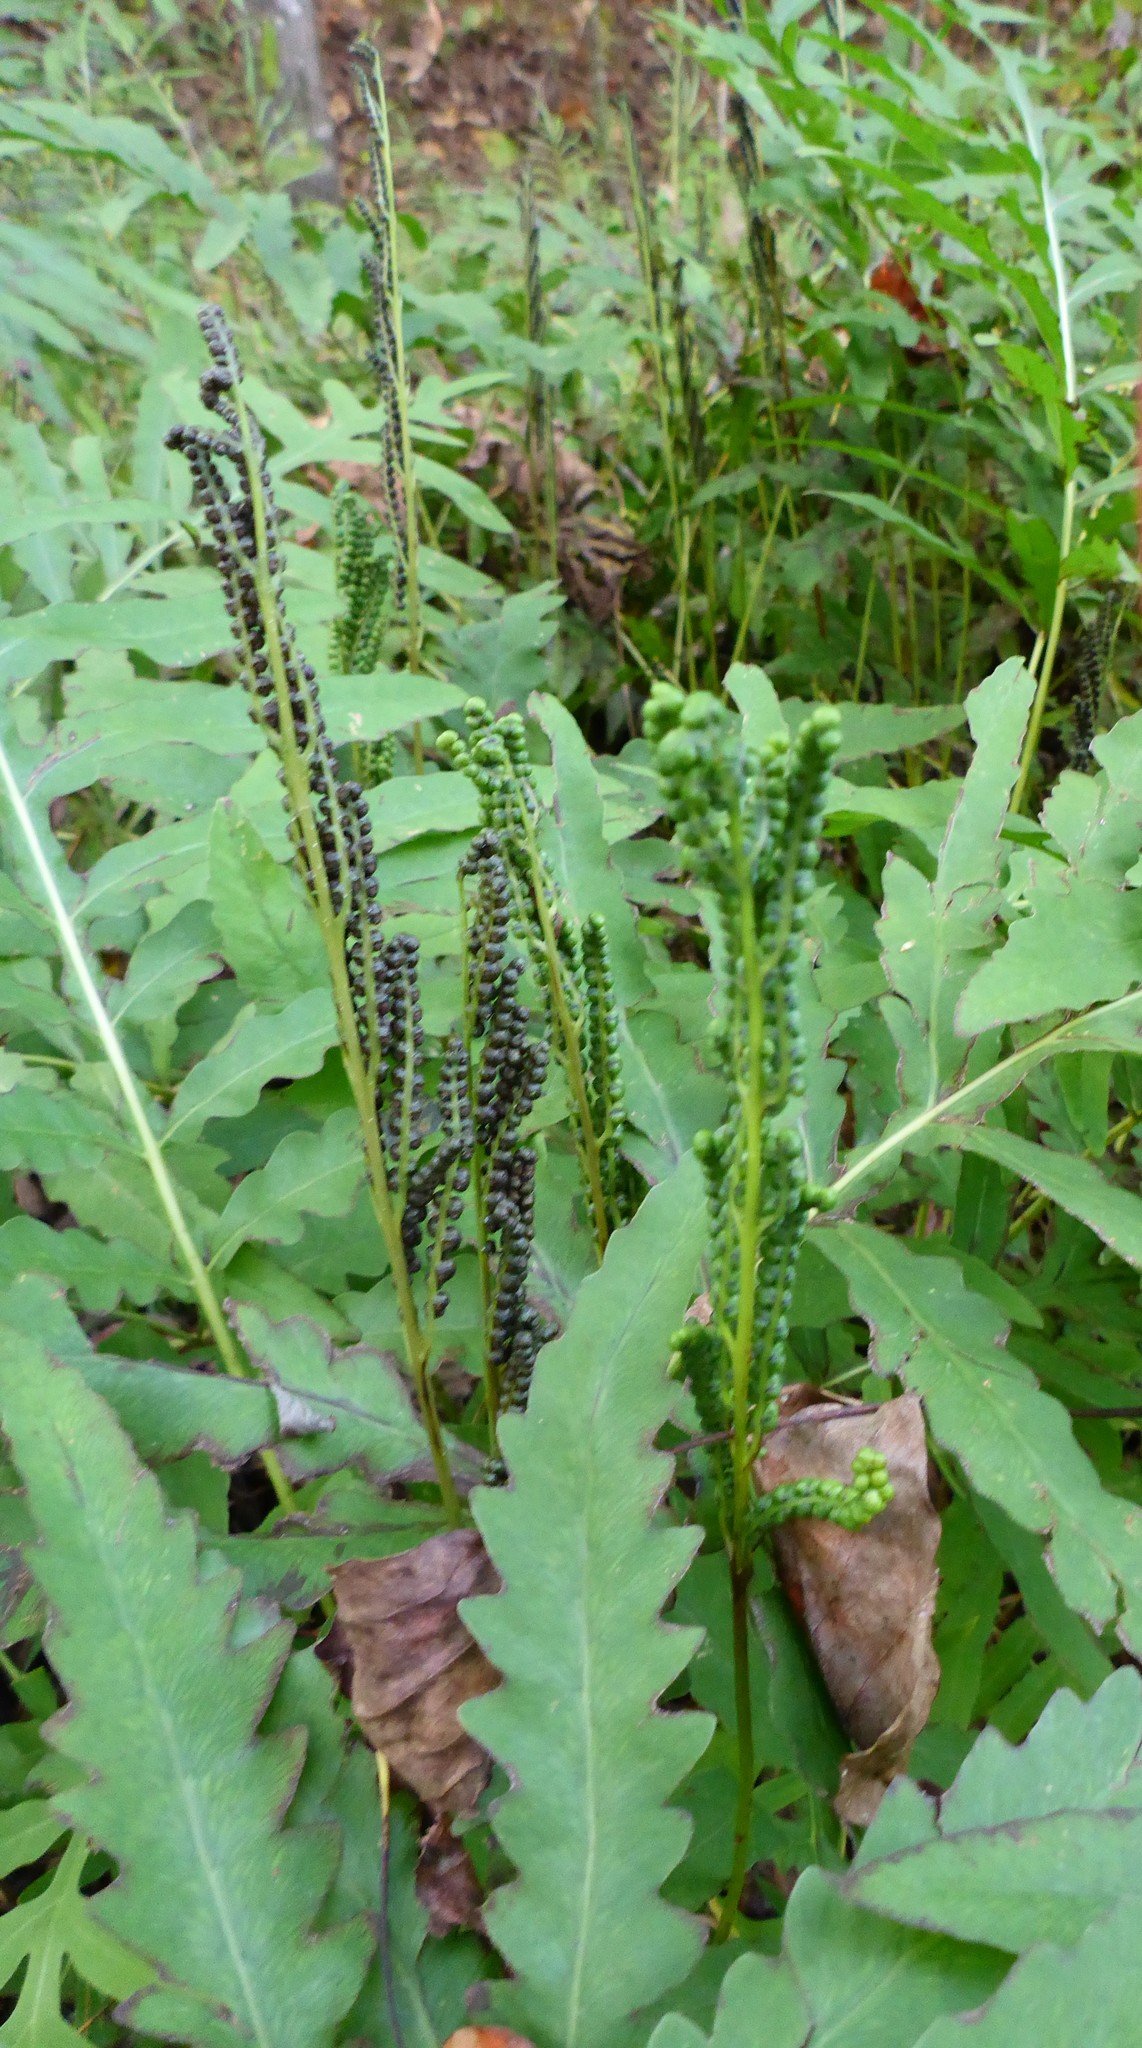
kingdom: Plantae
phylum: Tracheophyta
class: Polypodiopsida
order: Polypodiales
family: Onocleaceae
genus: Onoclea
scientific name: Onoclea sensibilis
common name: Sensitive fern
